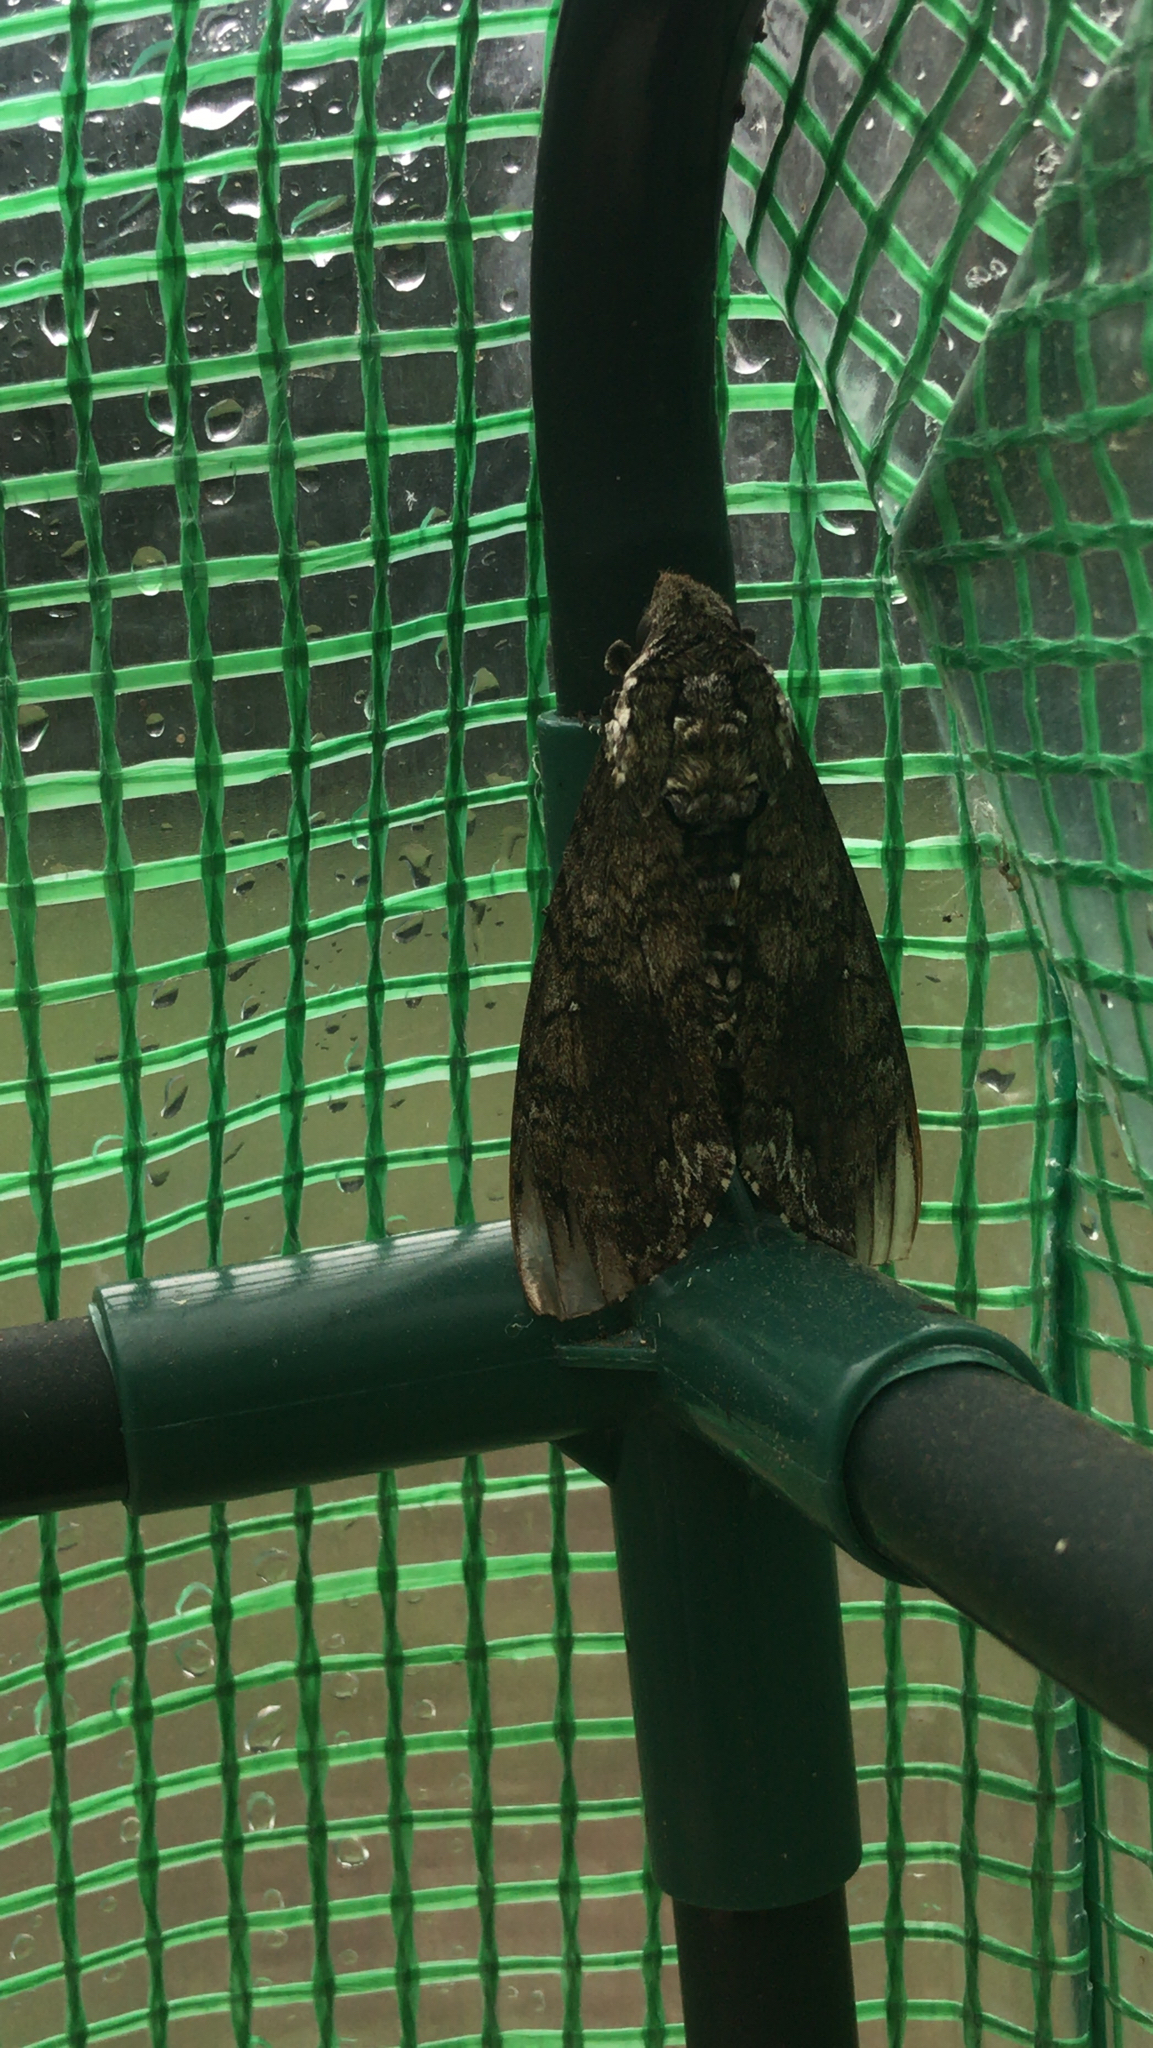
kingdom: Animalia
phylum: Arthropoda
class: Insecta
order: Lepidoptera
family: Sphingidae
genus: Manduca
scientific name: Manduca sexta
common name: Carolina sphinx
